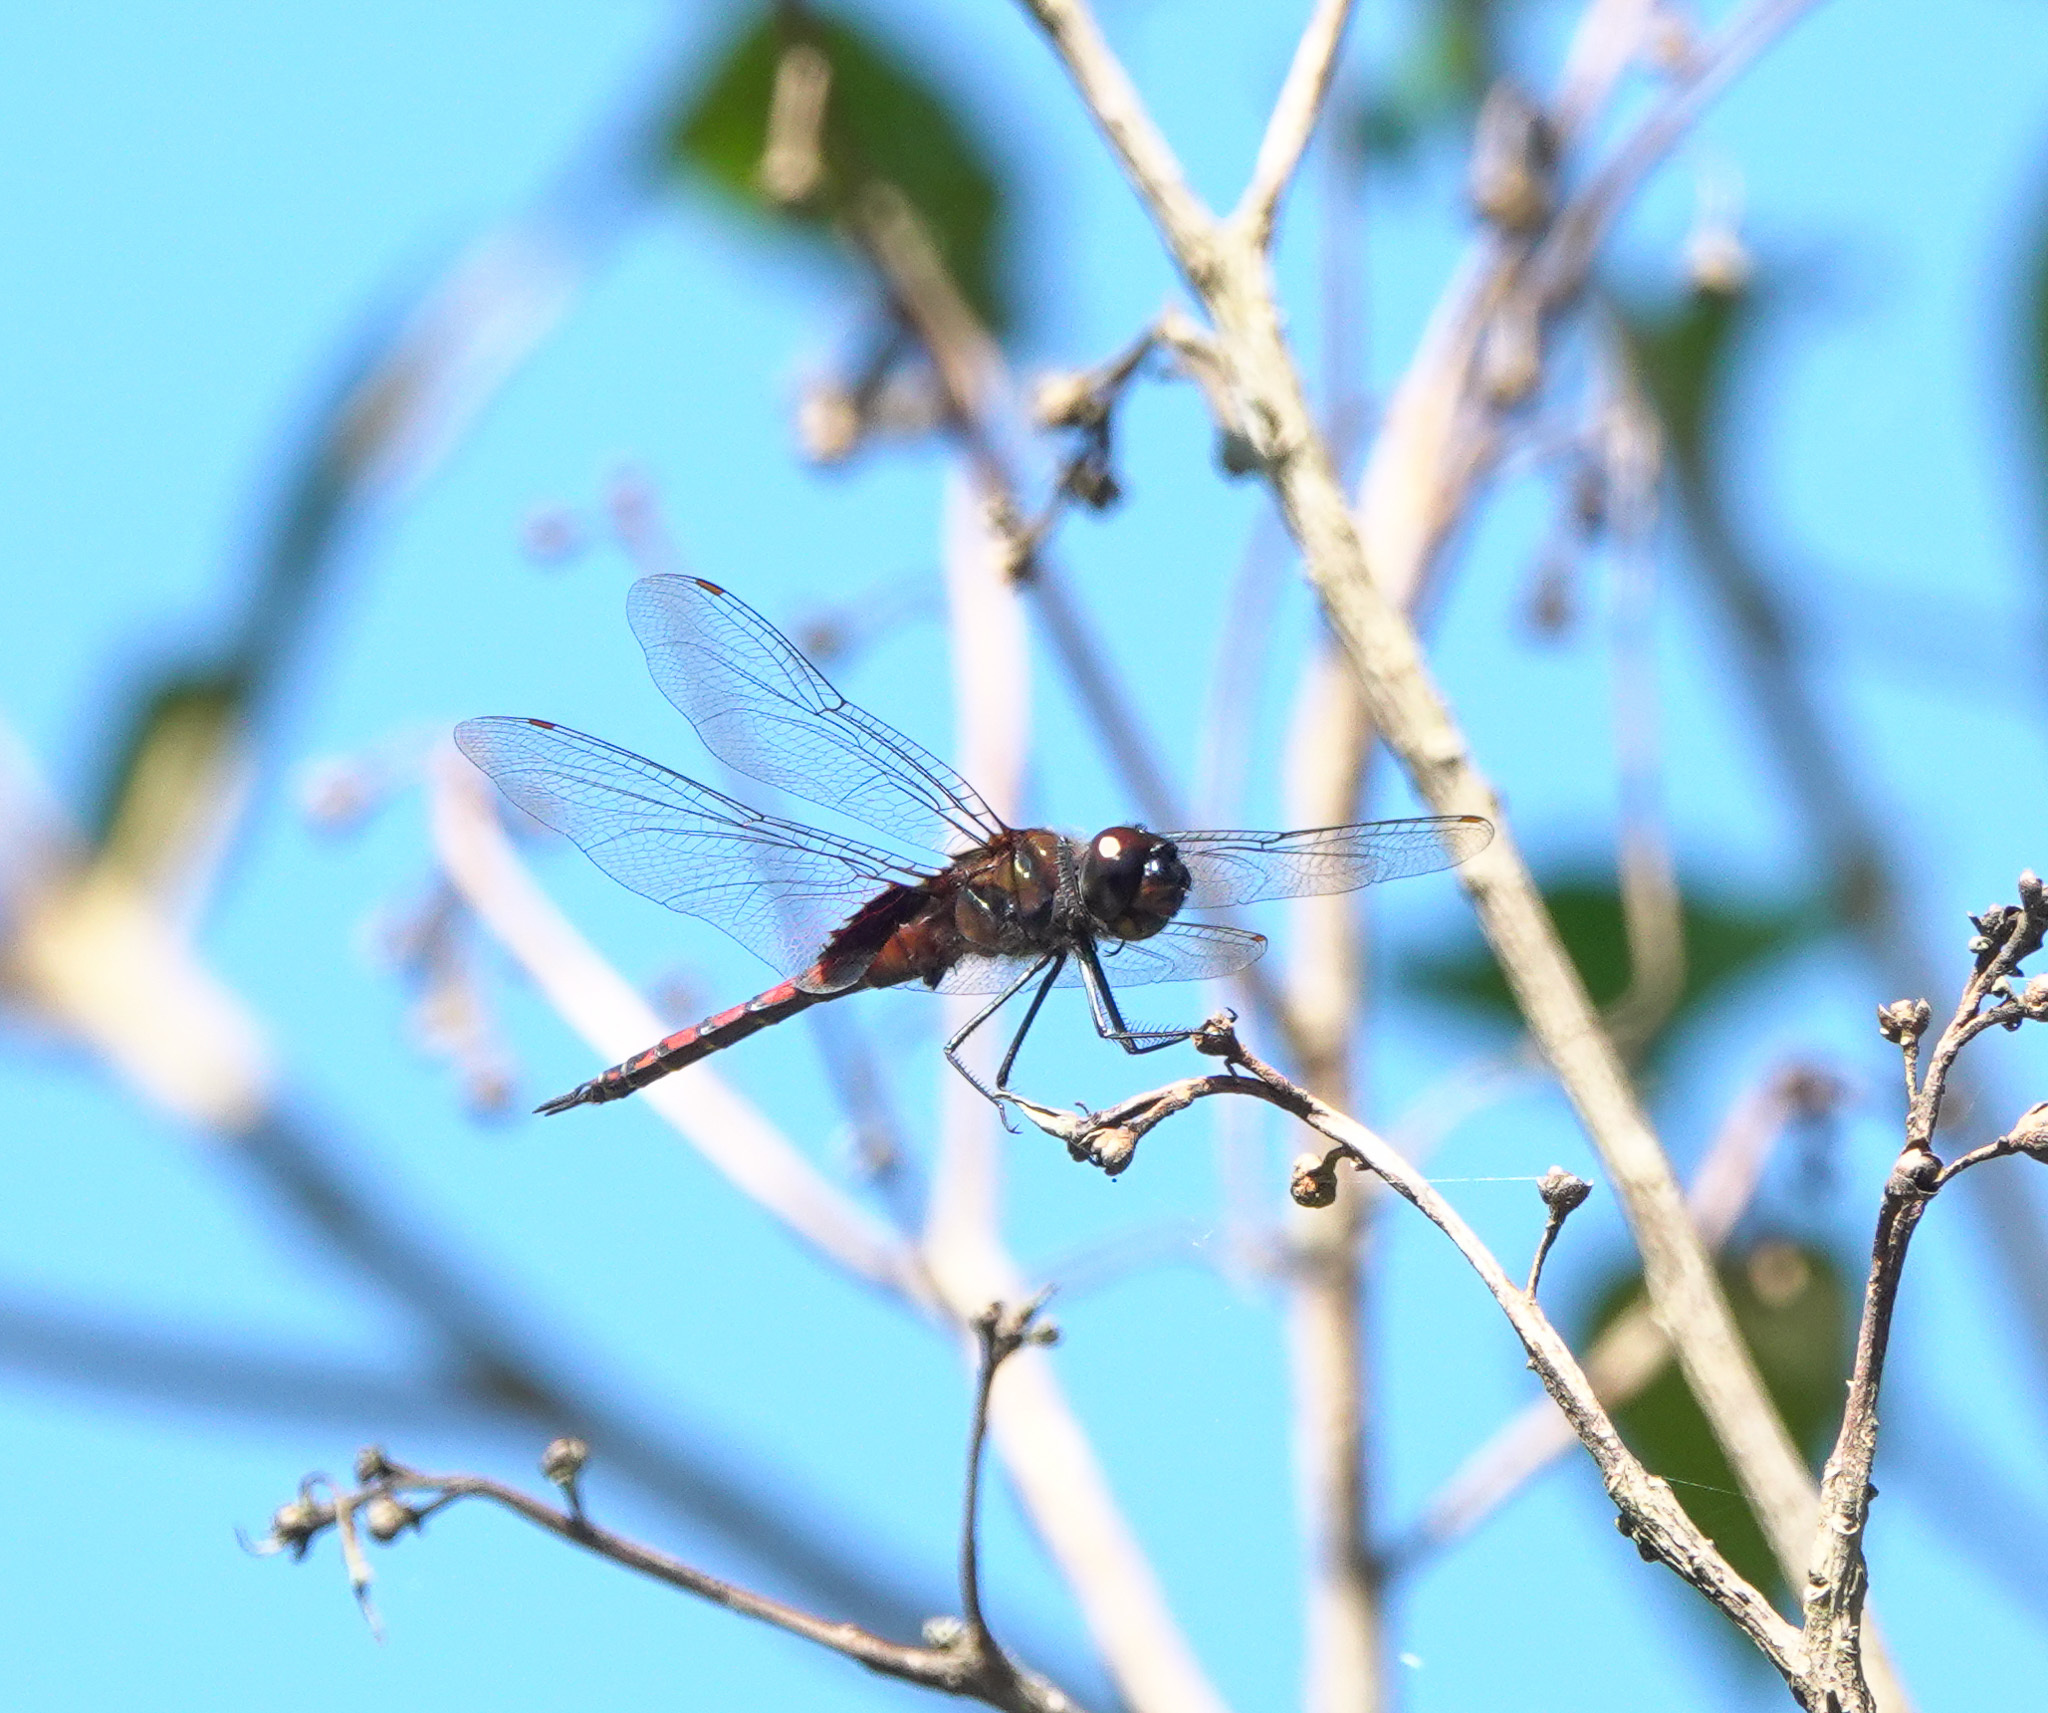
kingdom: Animalia
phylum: Arthropoda
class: Insecta
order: Odonata
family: Libellulidae
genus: Tramea
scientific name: Tramea limbata
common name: Ferruginous glider
